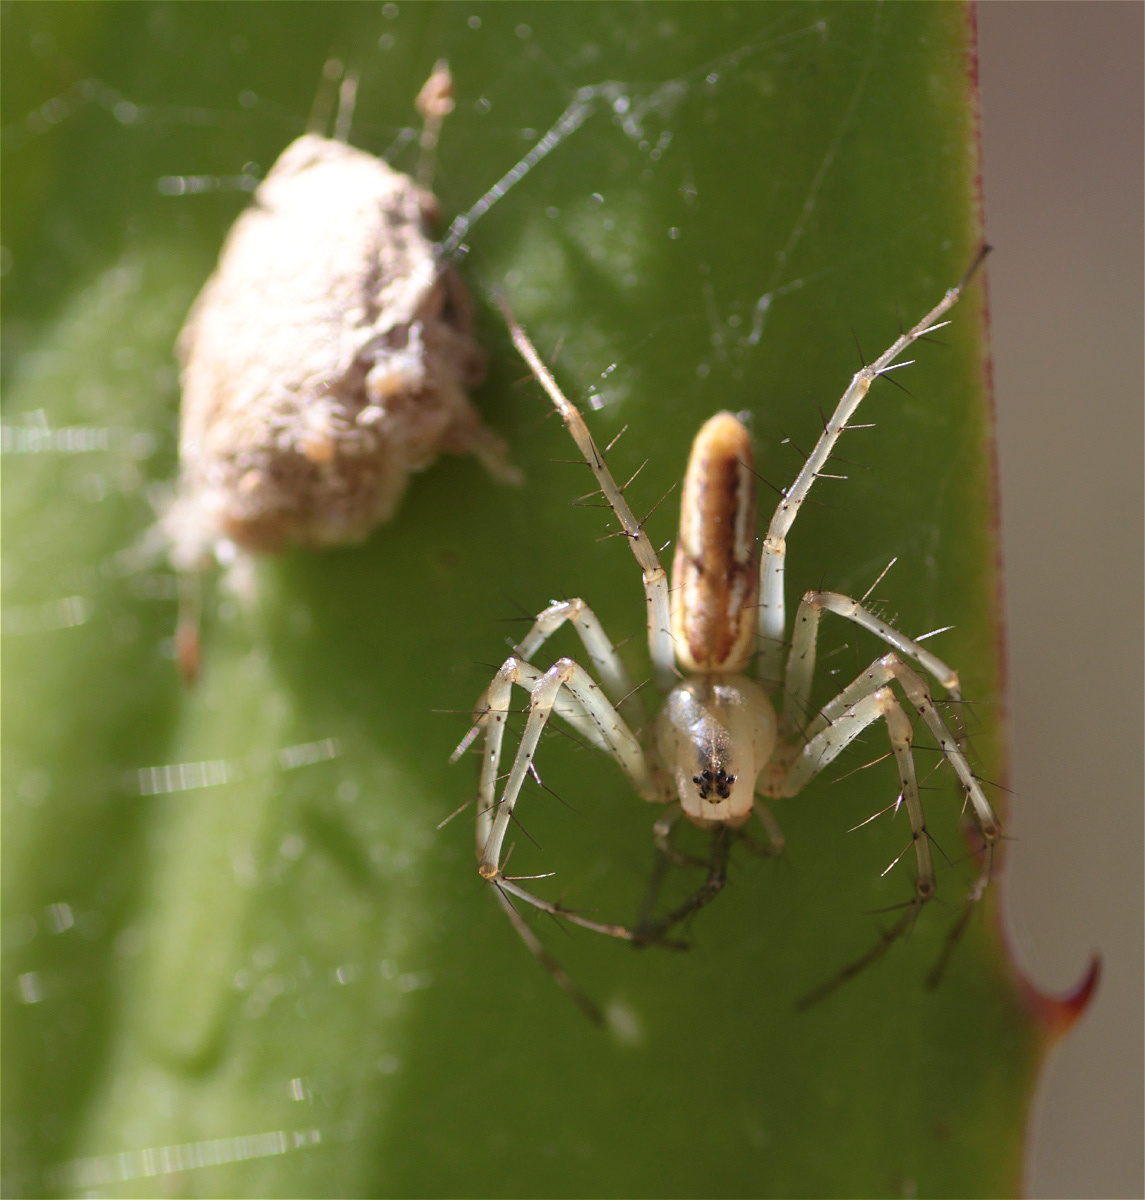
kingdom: Animalia
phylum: Arthropoda
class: Arachnida
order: Araneae
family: Oxyopidae
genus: Peucetia
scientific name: Peucetia rubrolineata
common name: Lynx spiders
